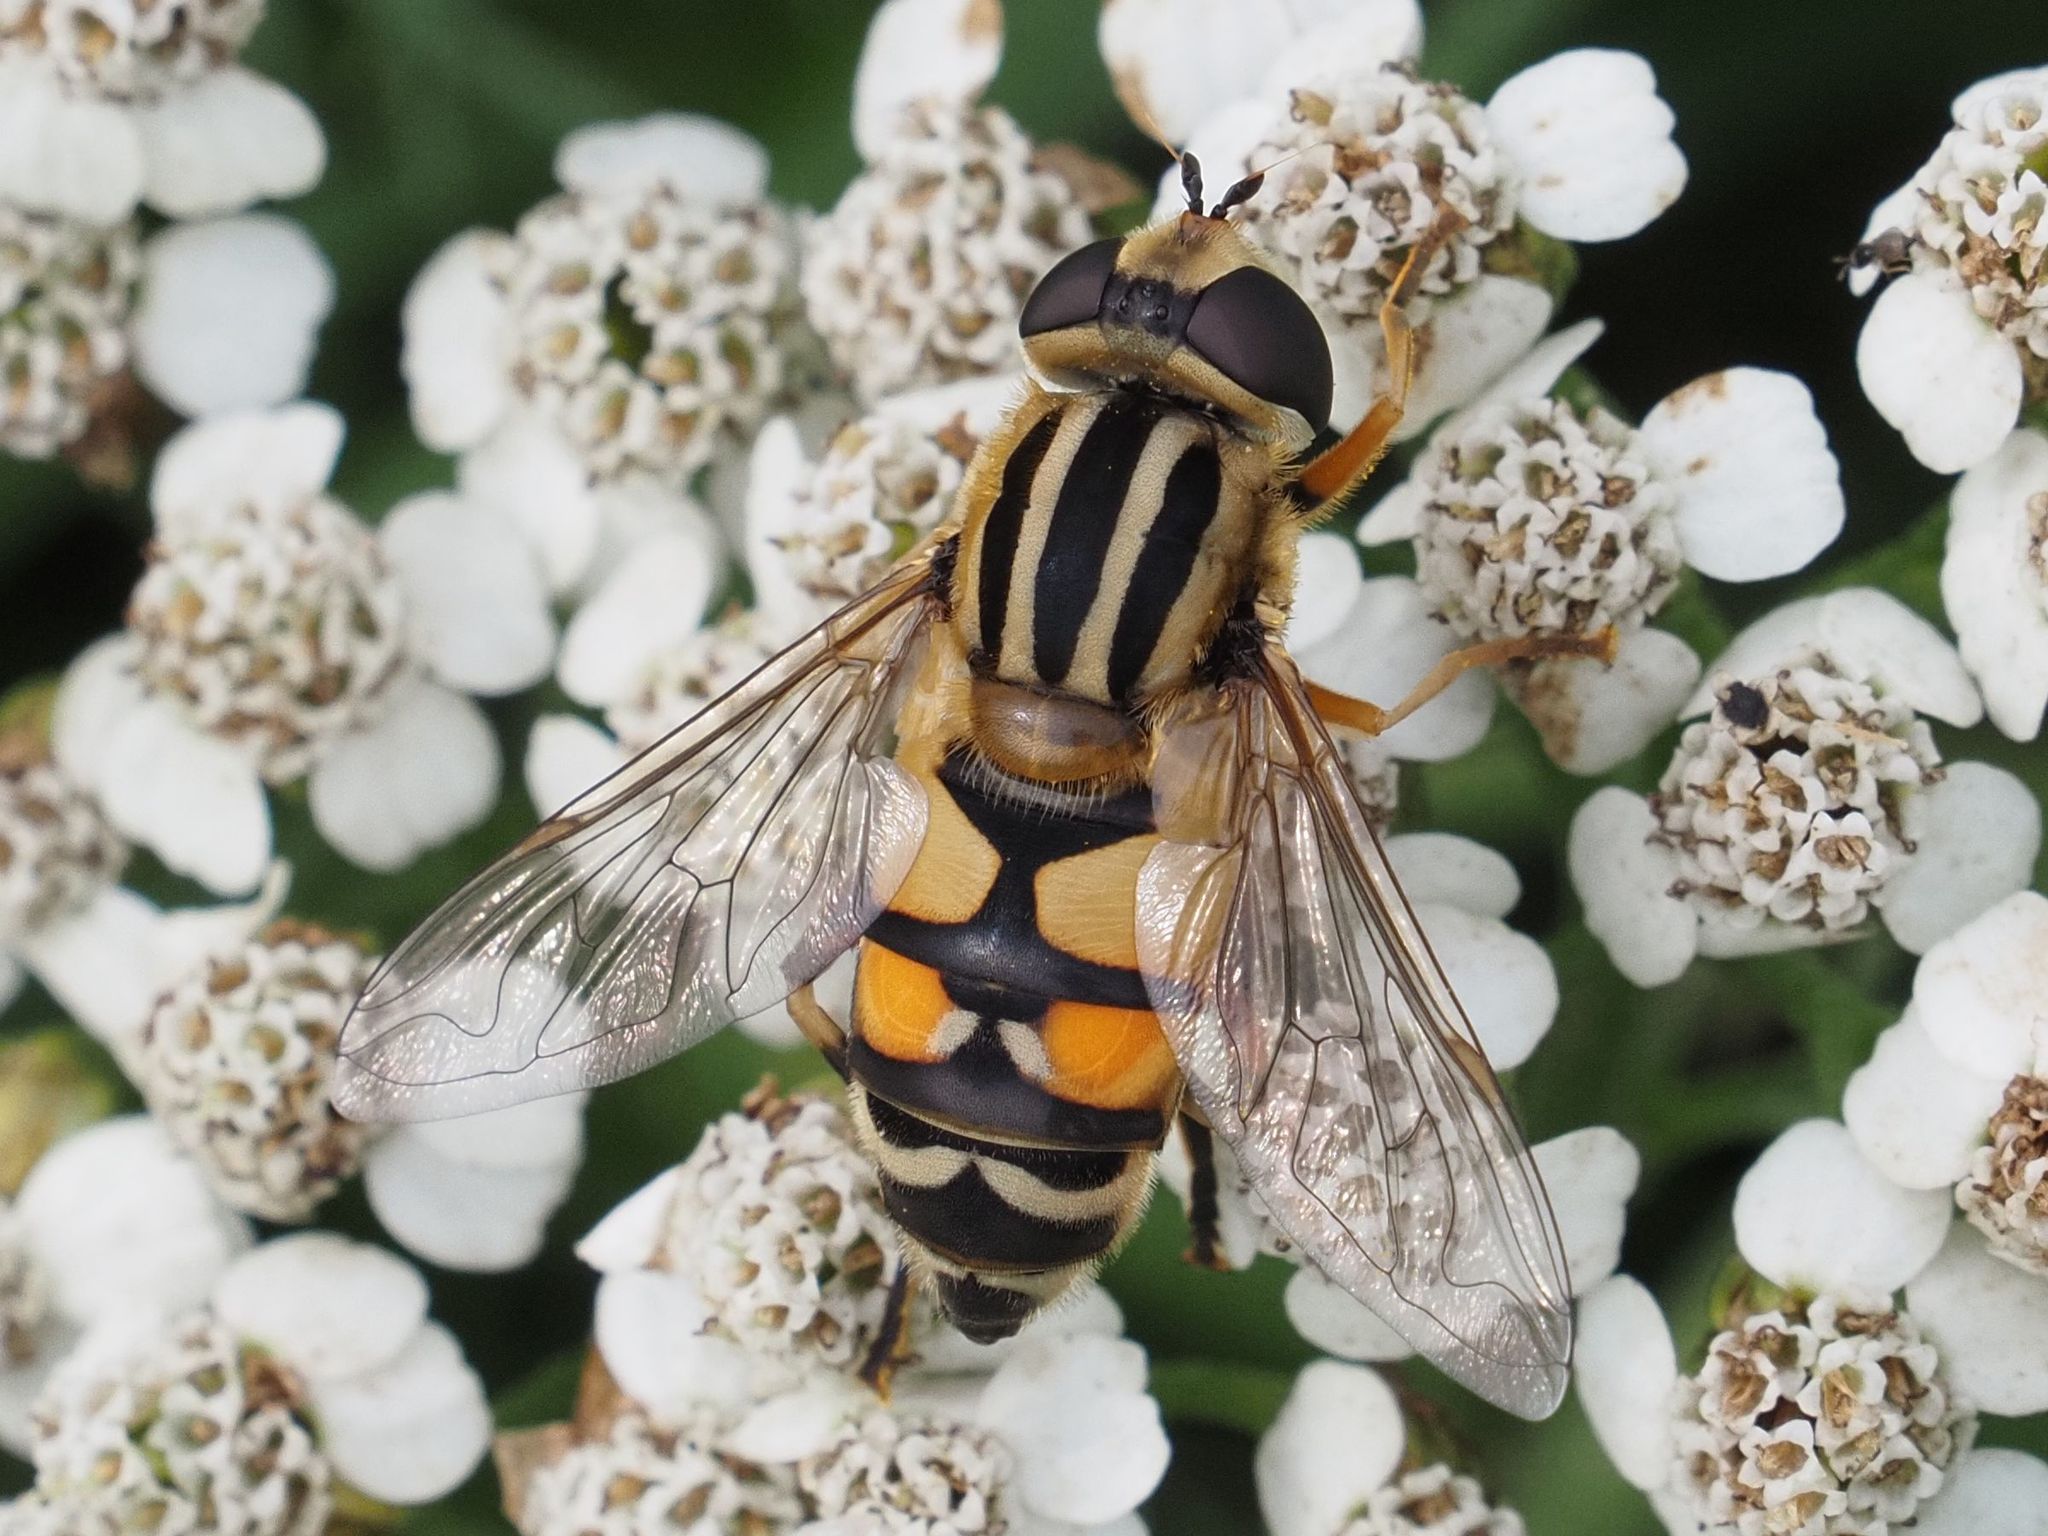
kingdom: Animalia
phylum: Arthropoda
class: Insecta
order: Diptera
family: Syrphidae
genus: Helophilus
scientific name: Helophilus trivittatus
